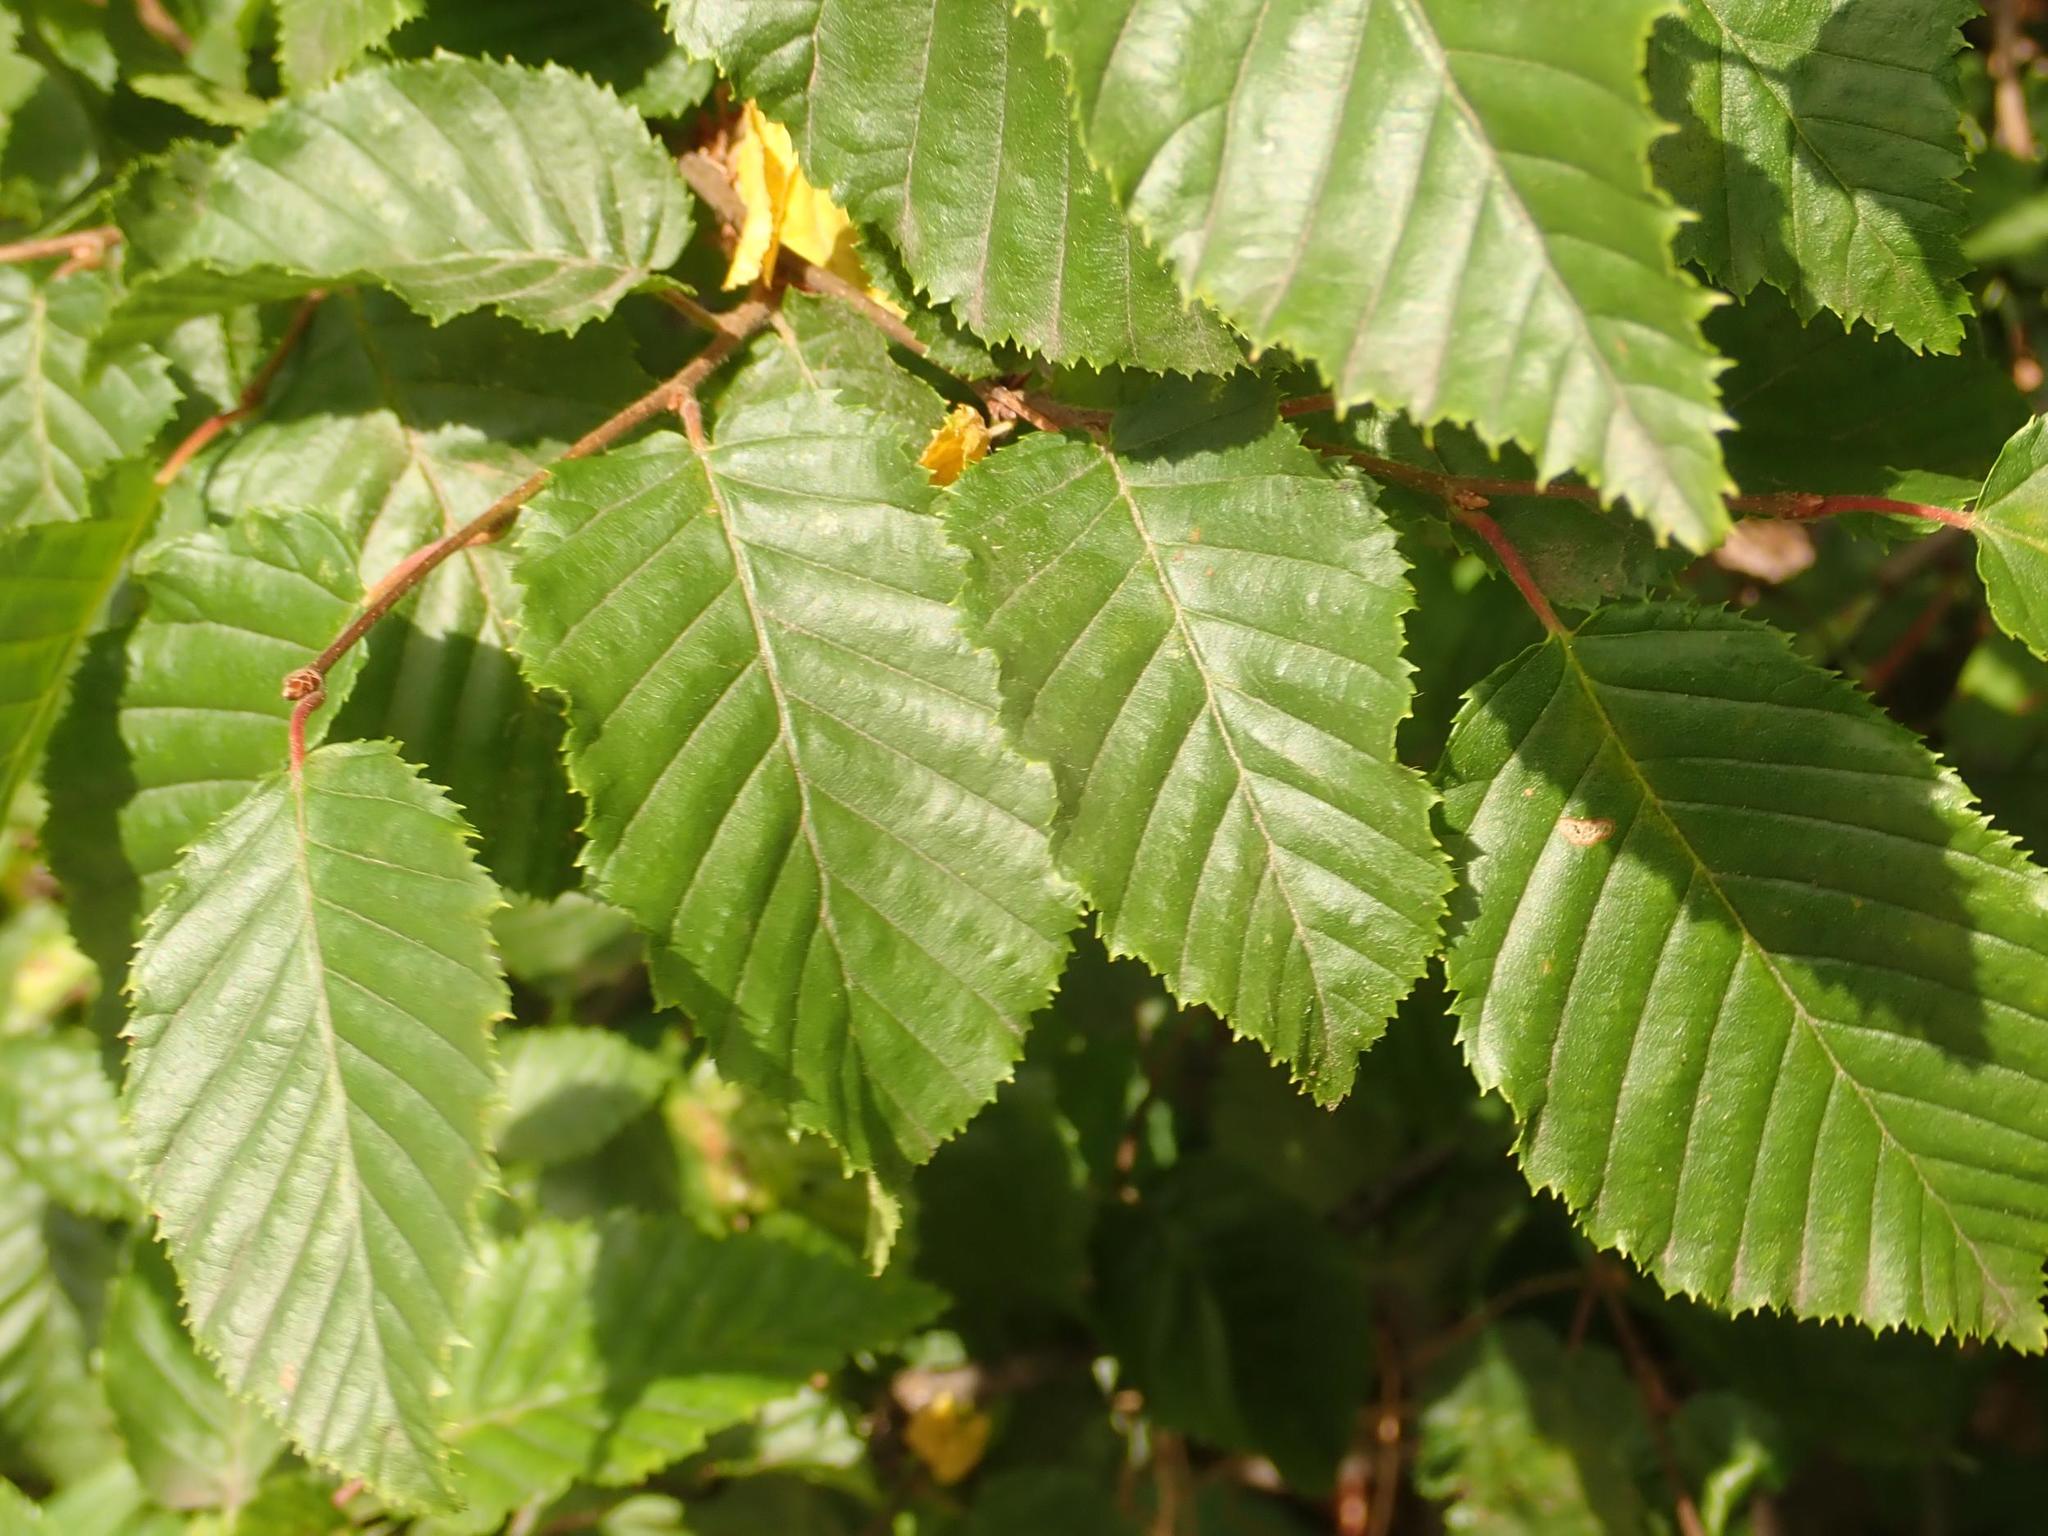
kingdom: Plantae
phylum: Tracheophyta
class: Magnoliopsida
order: Fagales
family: Betulaceae
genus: Carpinus
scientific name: Carpinus betulus
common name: Hornbeam
